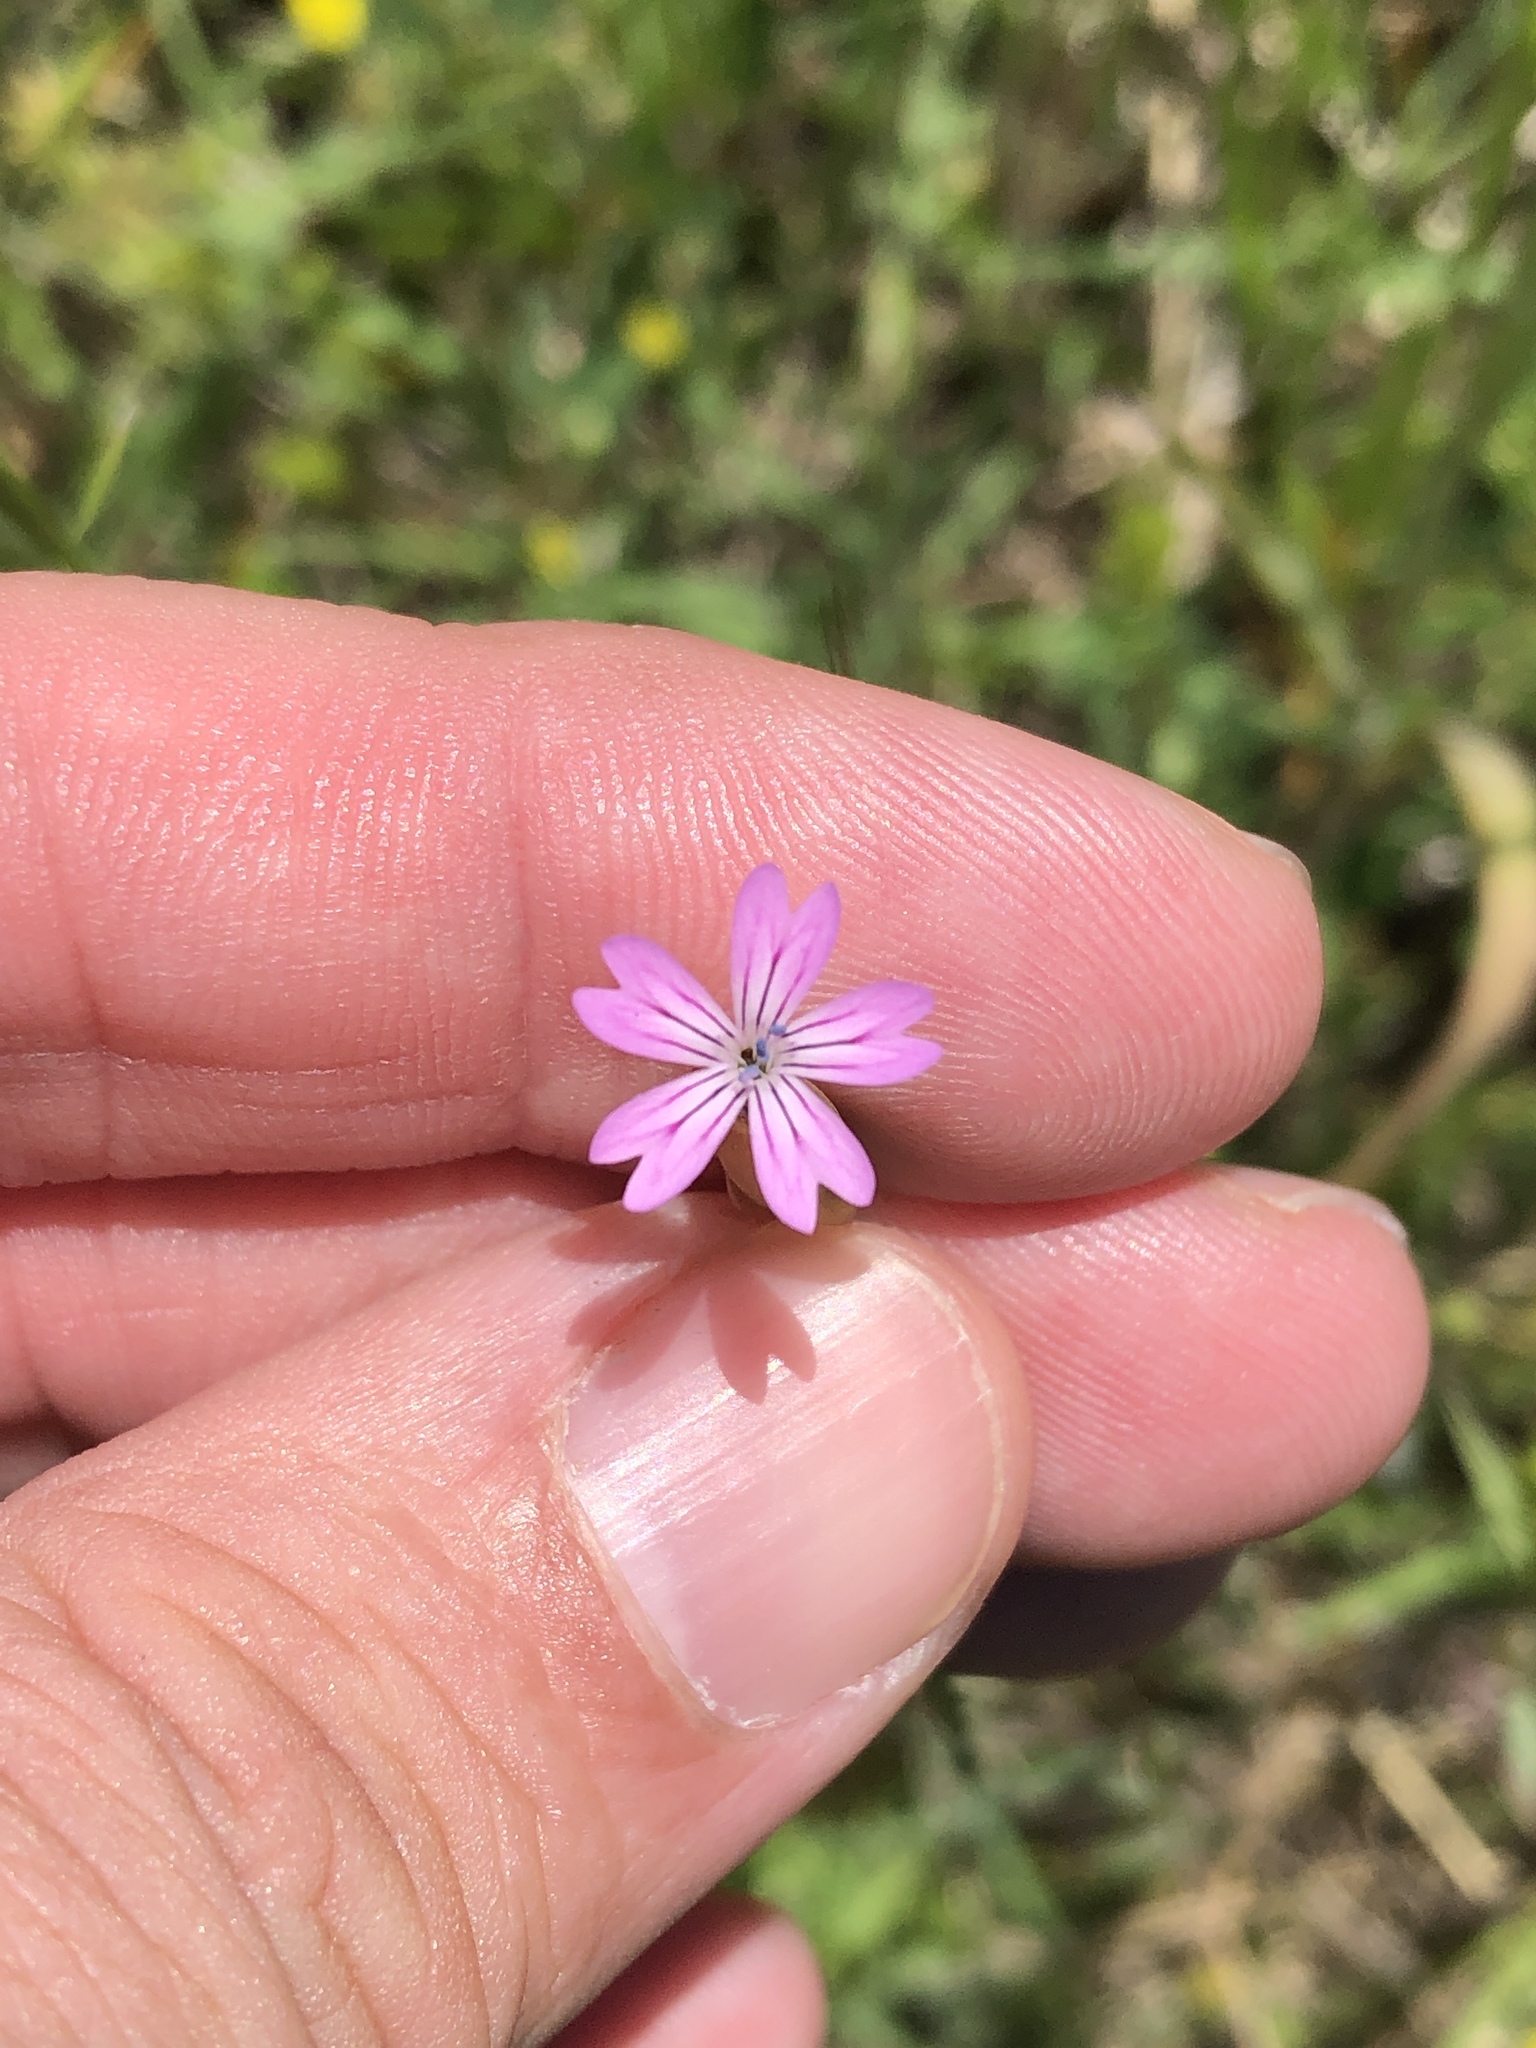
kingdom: Plantae
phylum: Tracheophyta
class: Magnoliopsida
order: Caryophyllales
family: Caryophyllaceae
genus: Petrorhagia
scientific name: Petrorhagia dubia
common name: Hairypink
